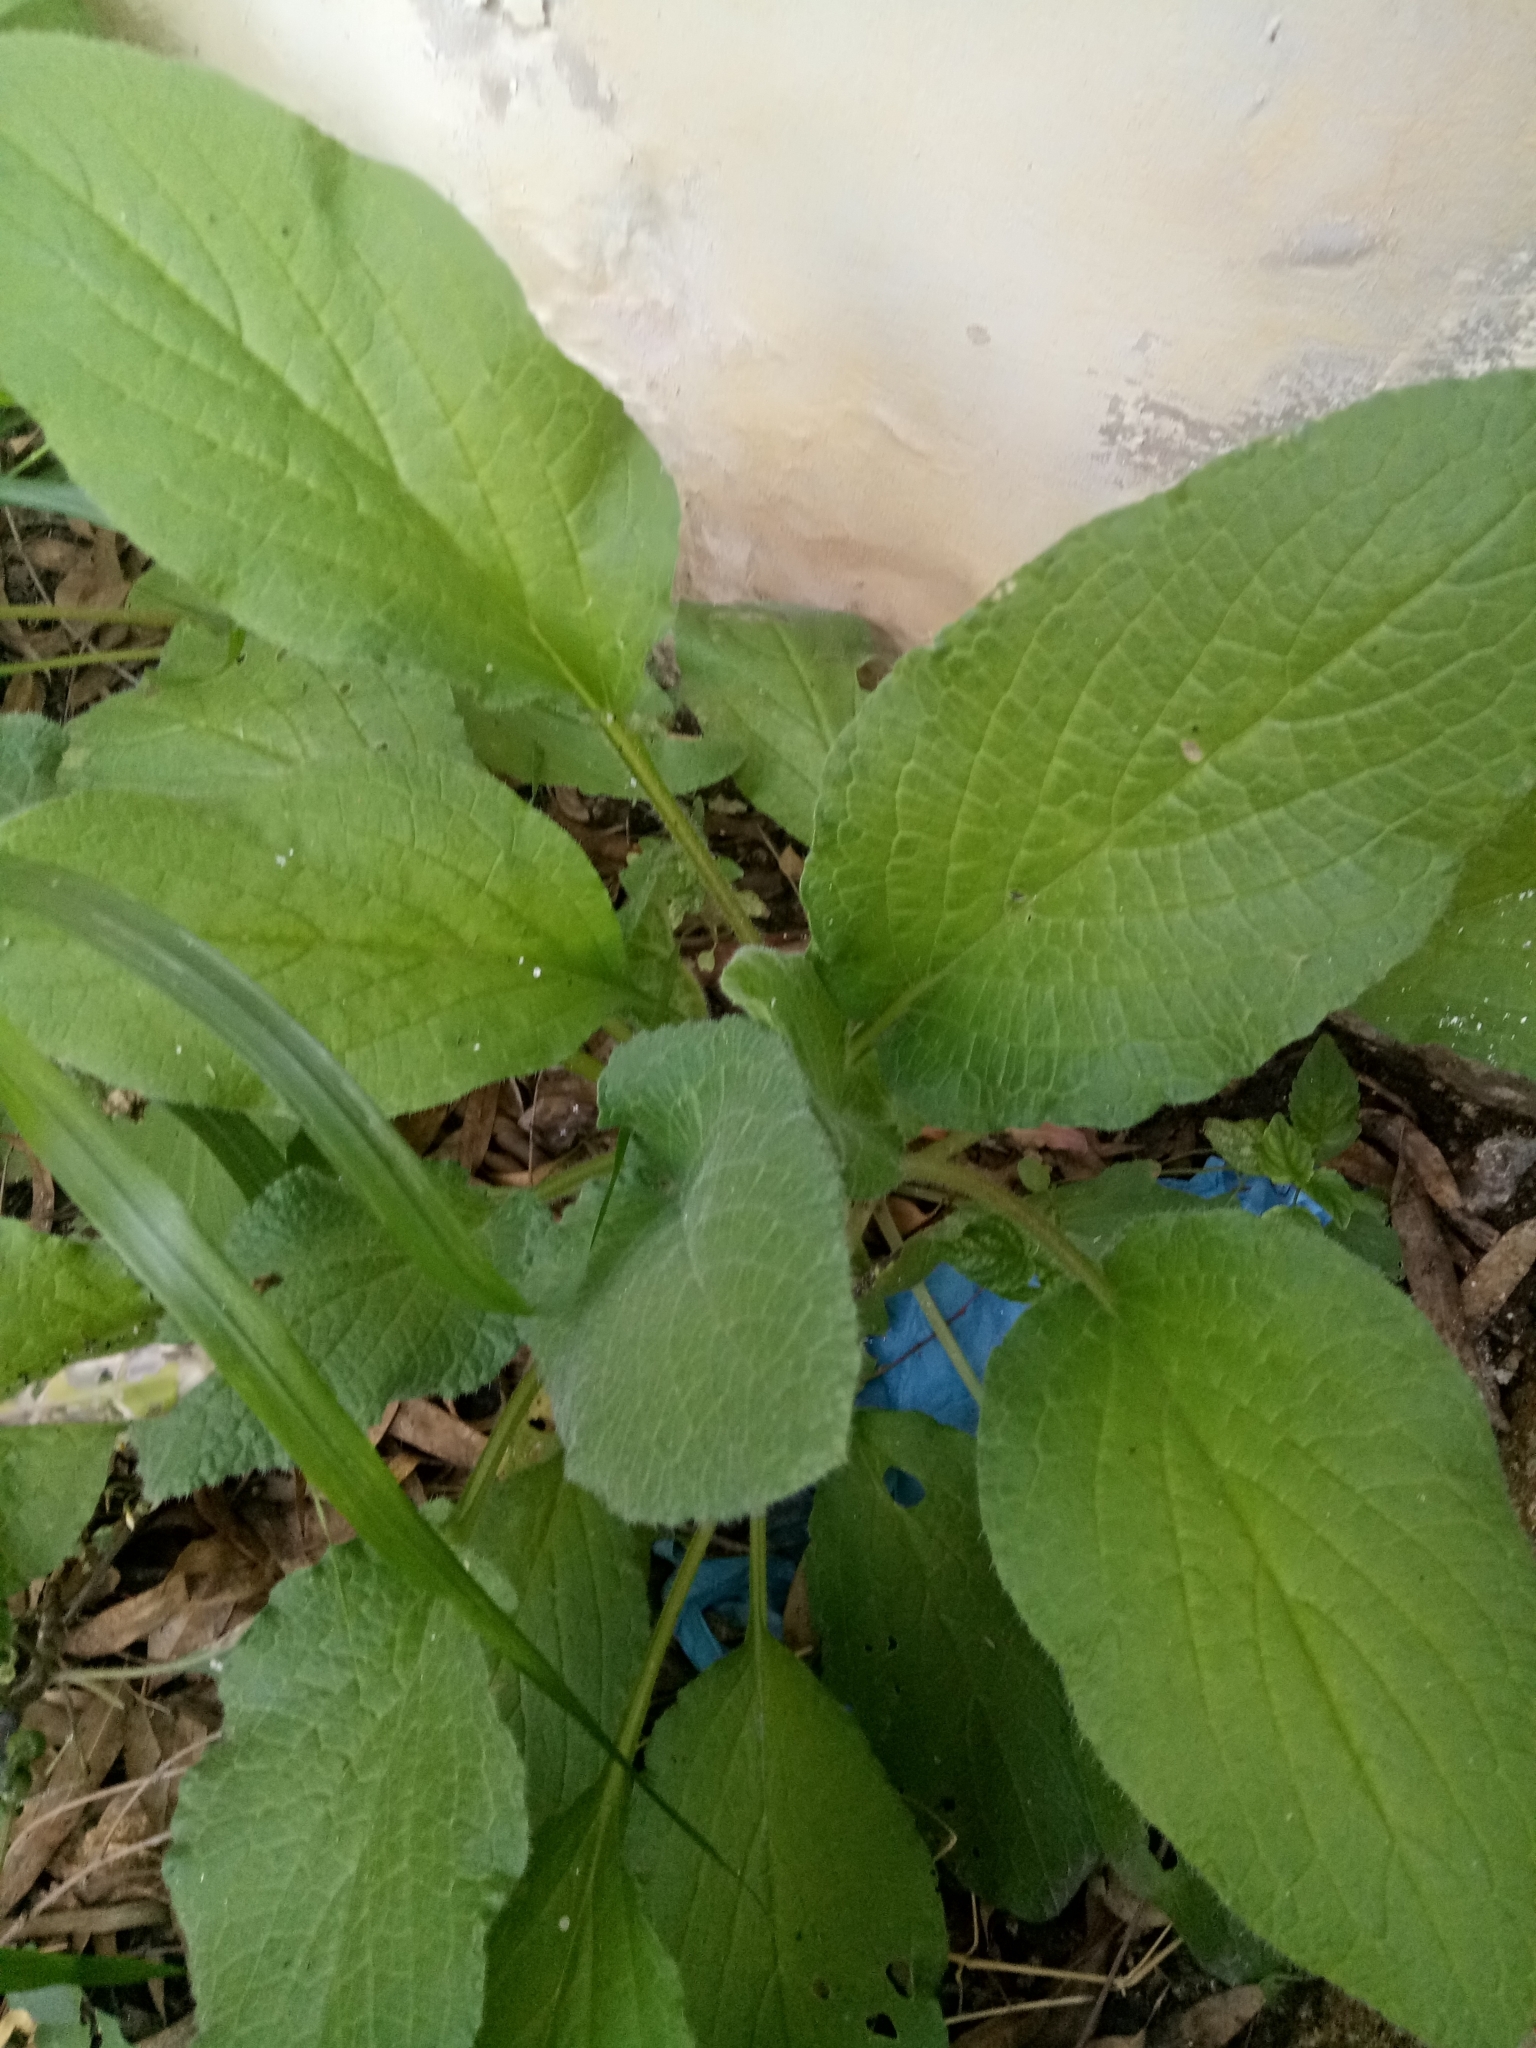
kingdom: Plantae
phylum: Tracheophyta
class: Magnoliopsida
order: Boraginales
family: Boraginaceae
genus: Borago
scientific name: Borago officinalis
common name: Borage
